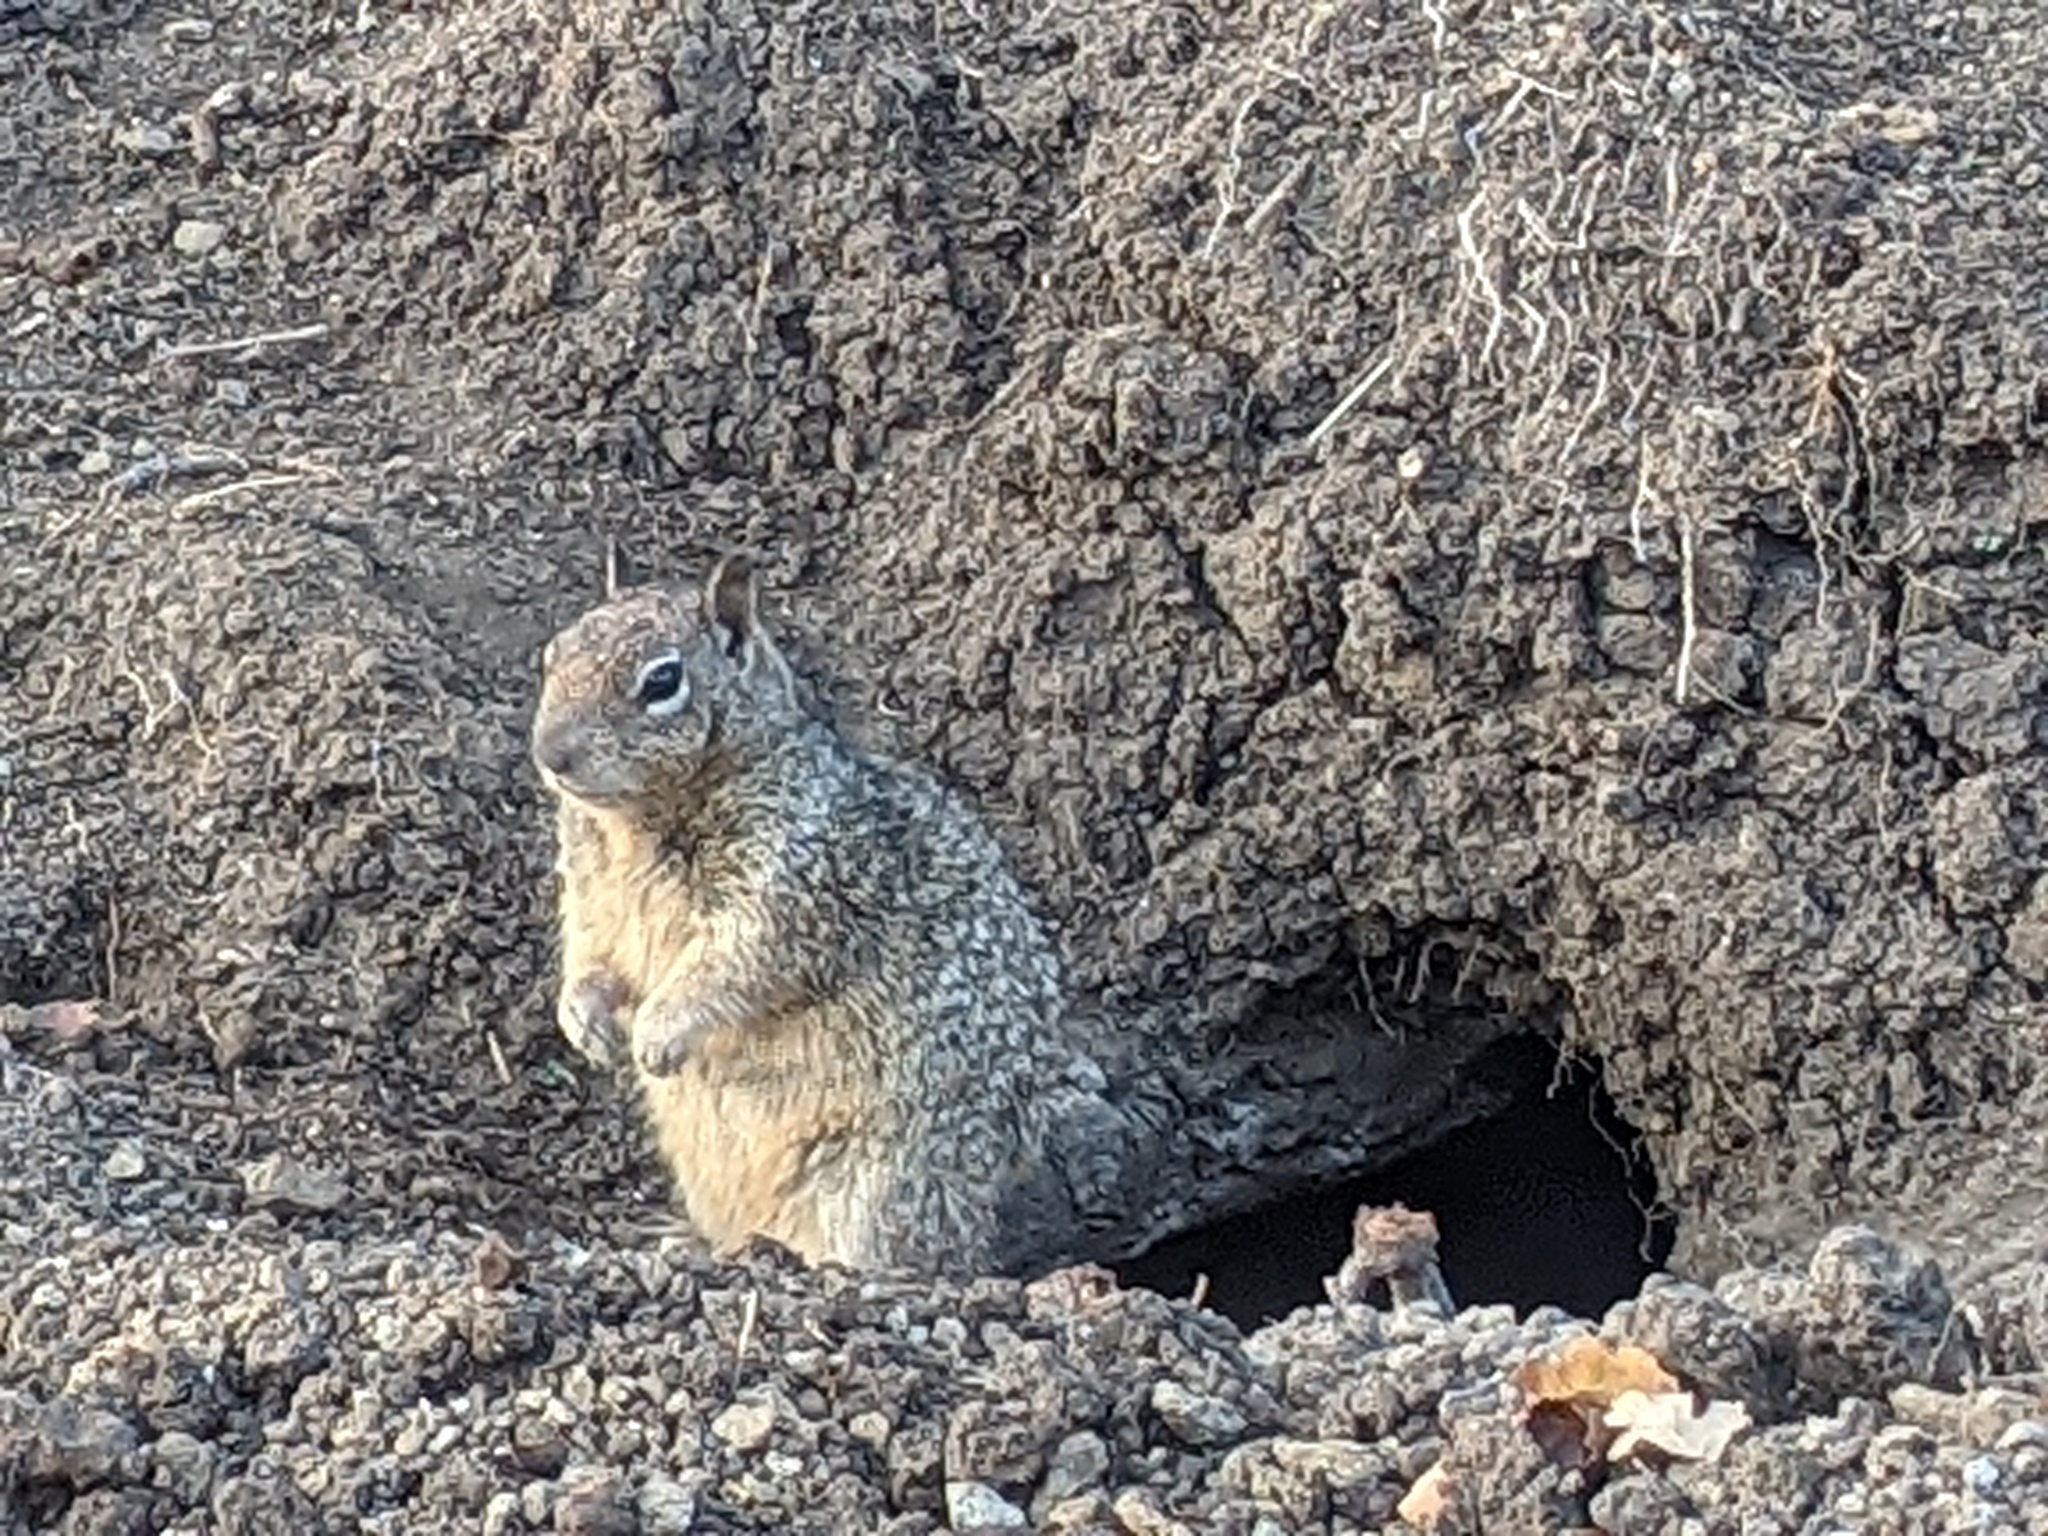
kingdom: Animalia
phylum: Chordata
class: Mammalia
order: Rodentia
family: Sciuridae
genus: Otospermophilus
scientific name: Otospermophilus beecheyi
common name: California ground squirrel
